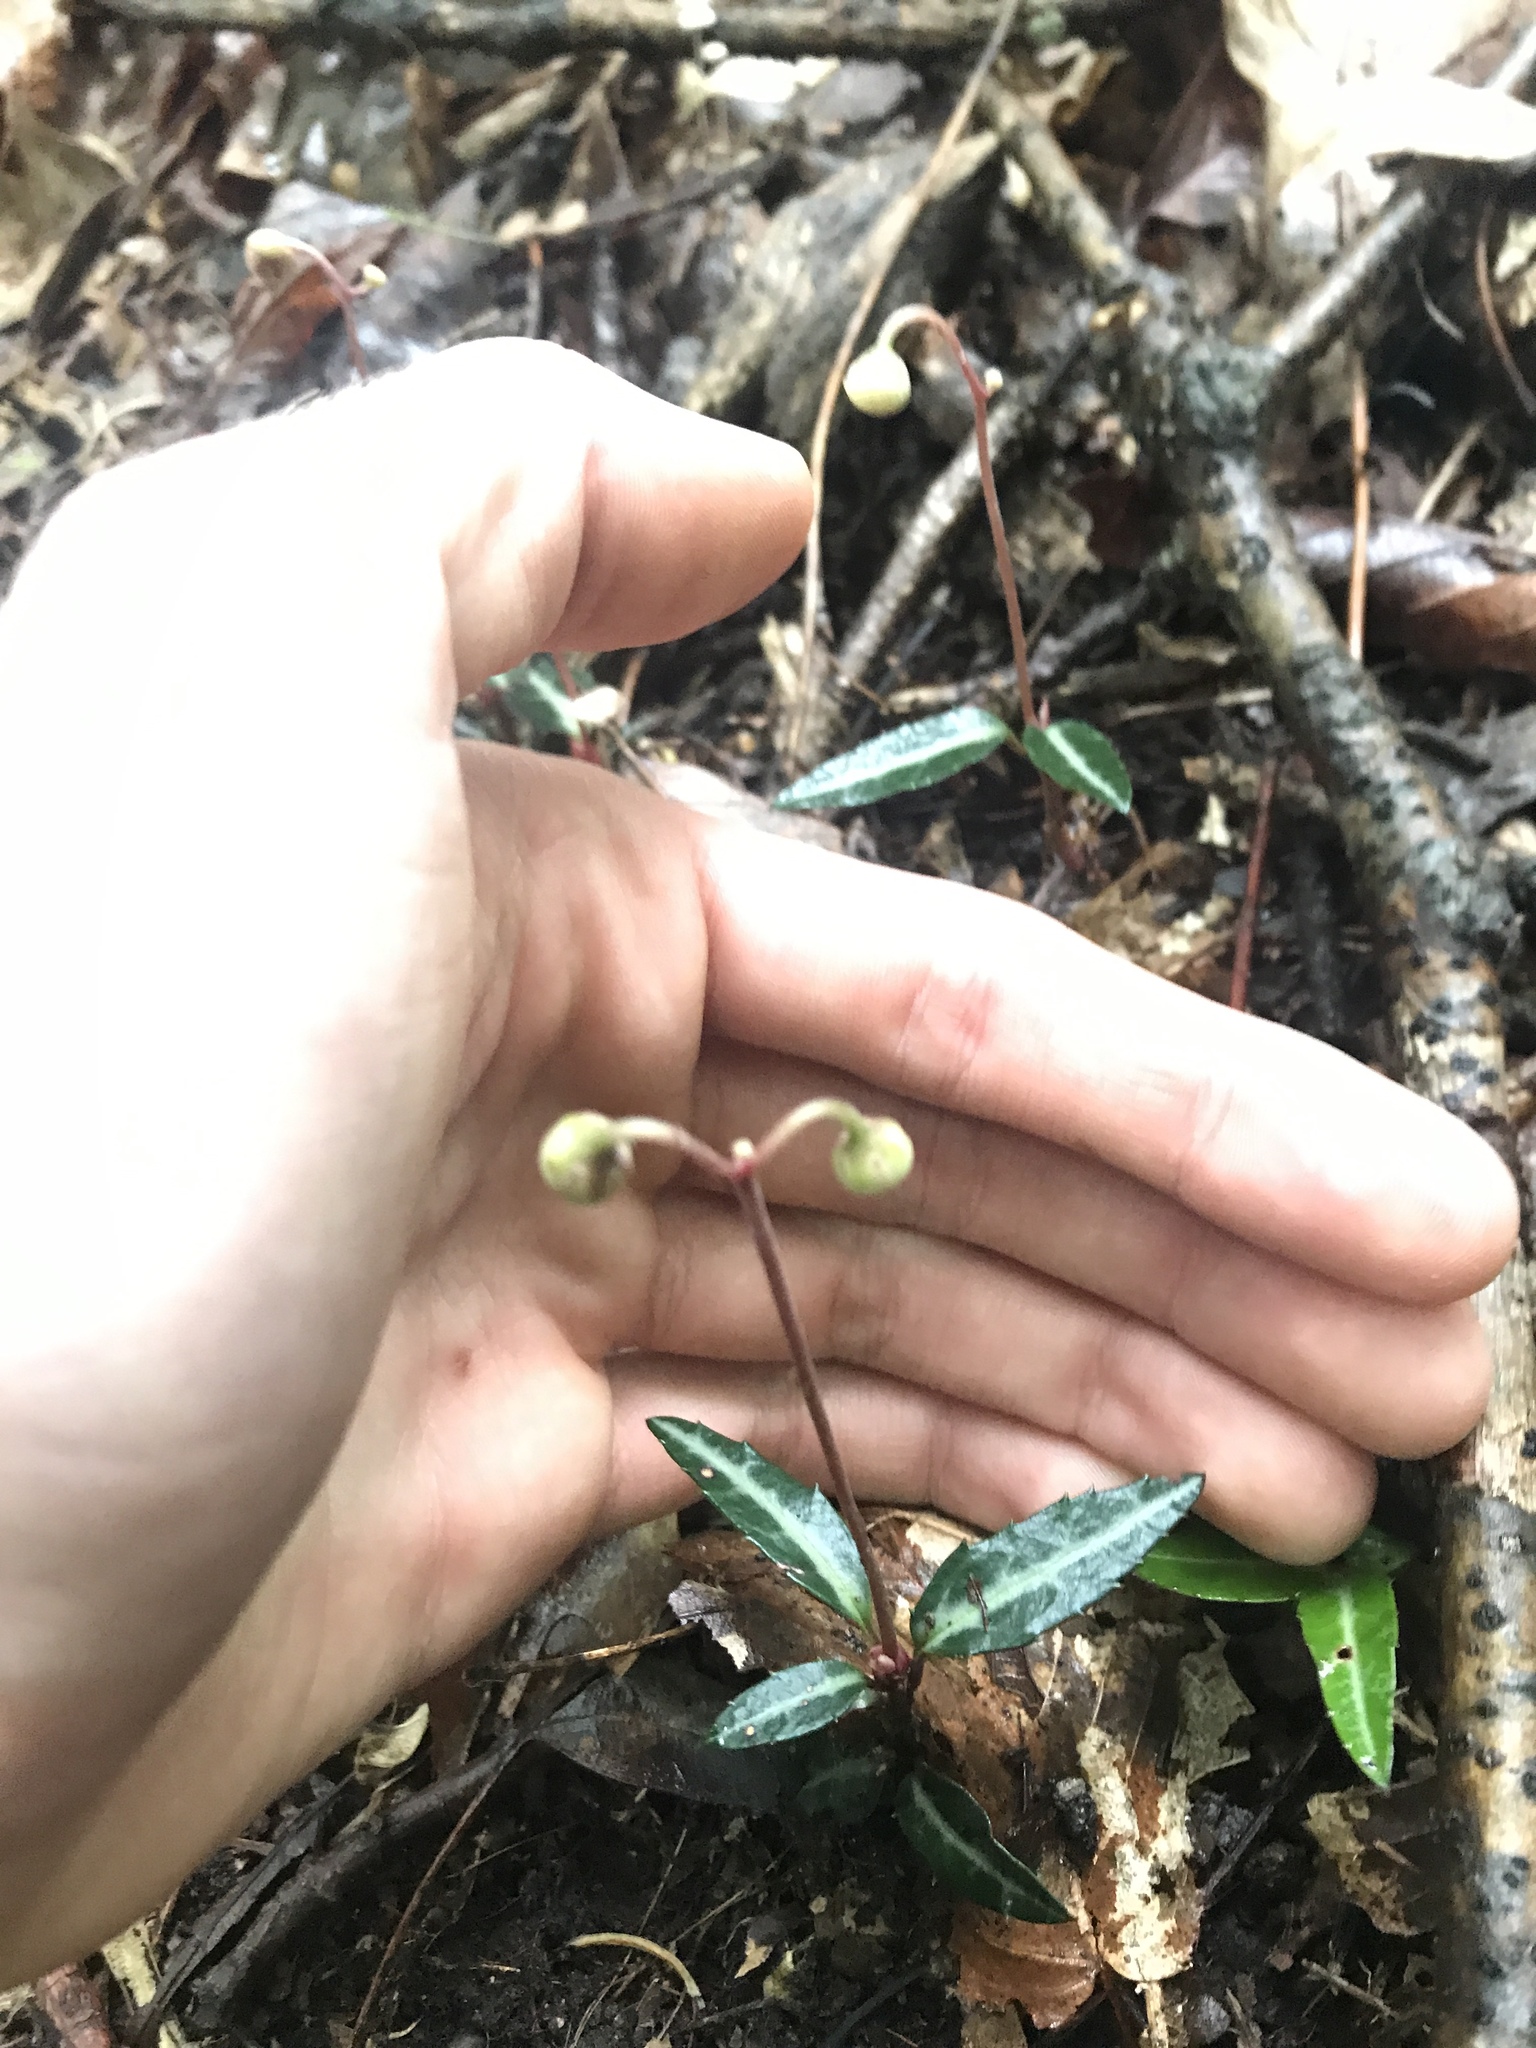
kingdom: Plantae
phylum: Tracheophyta
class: Magnoliopsida
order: Ericales
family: Ericaceae
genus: Chimaphila
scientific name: Chimaphila maculata
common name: Spotted pipsissewa
